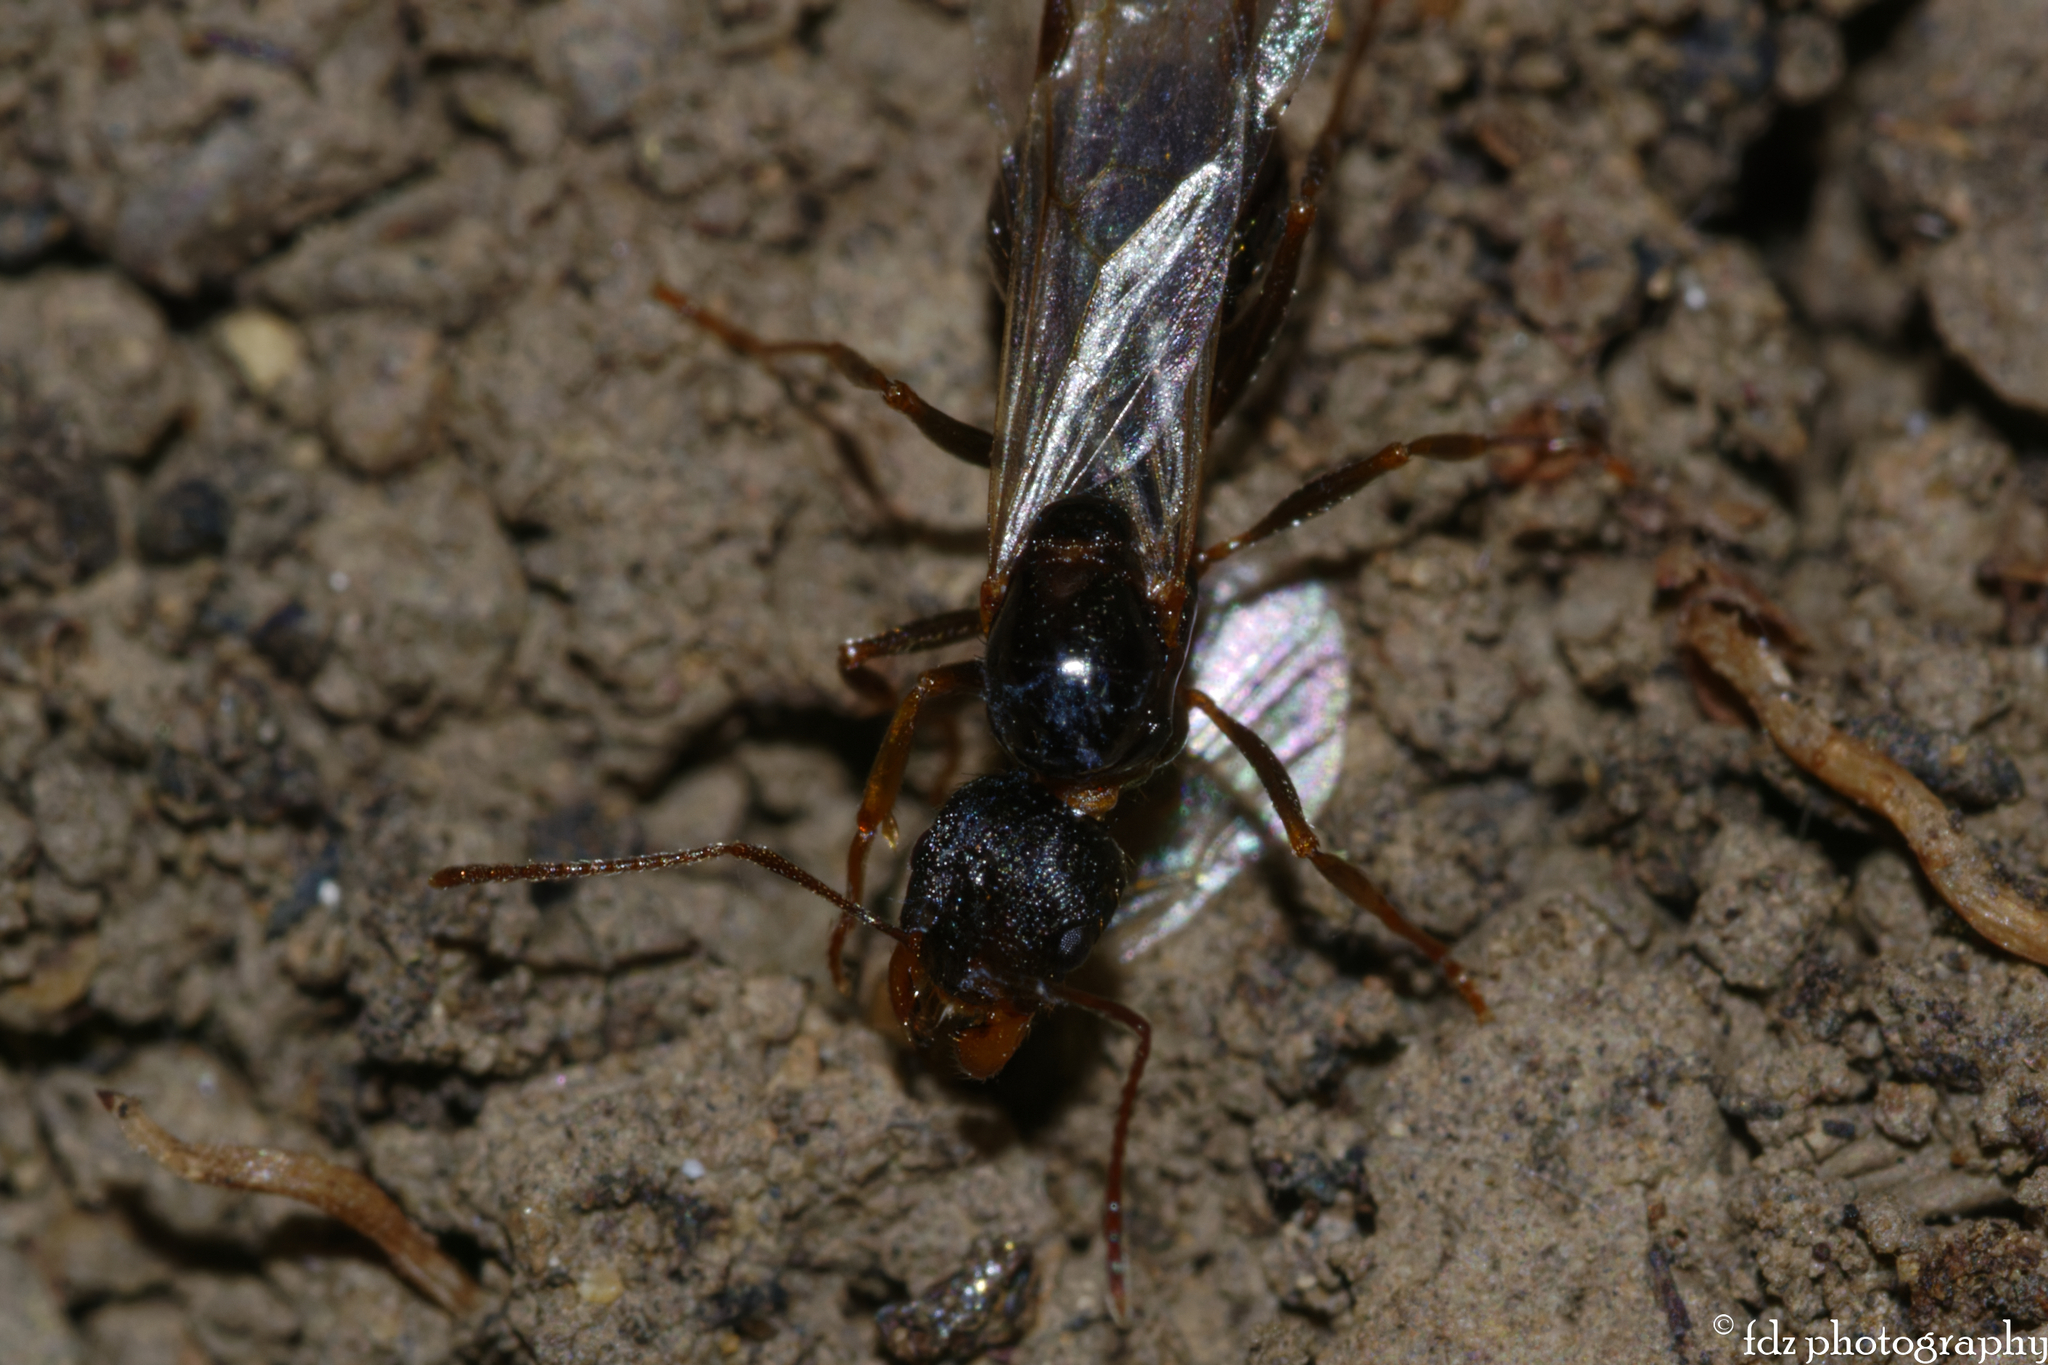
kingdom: Animalia
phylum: Arthropoda
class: Insecta
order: Hymenoptera
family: Formicidae
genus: Aphaenogaster
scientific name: Aphaenogaster gibbosa
